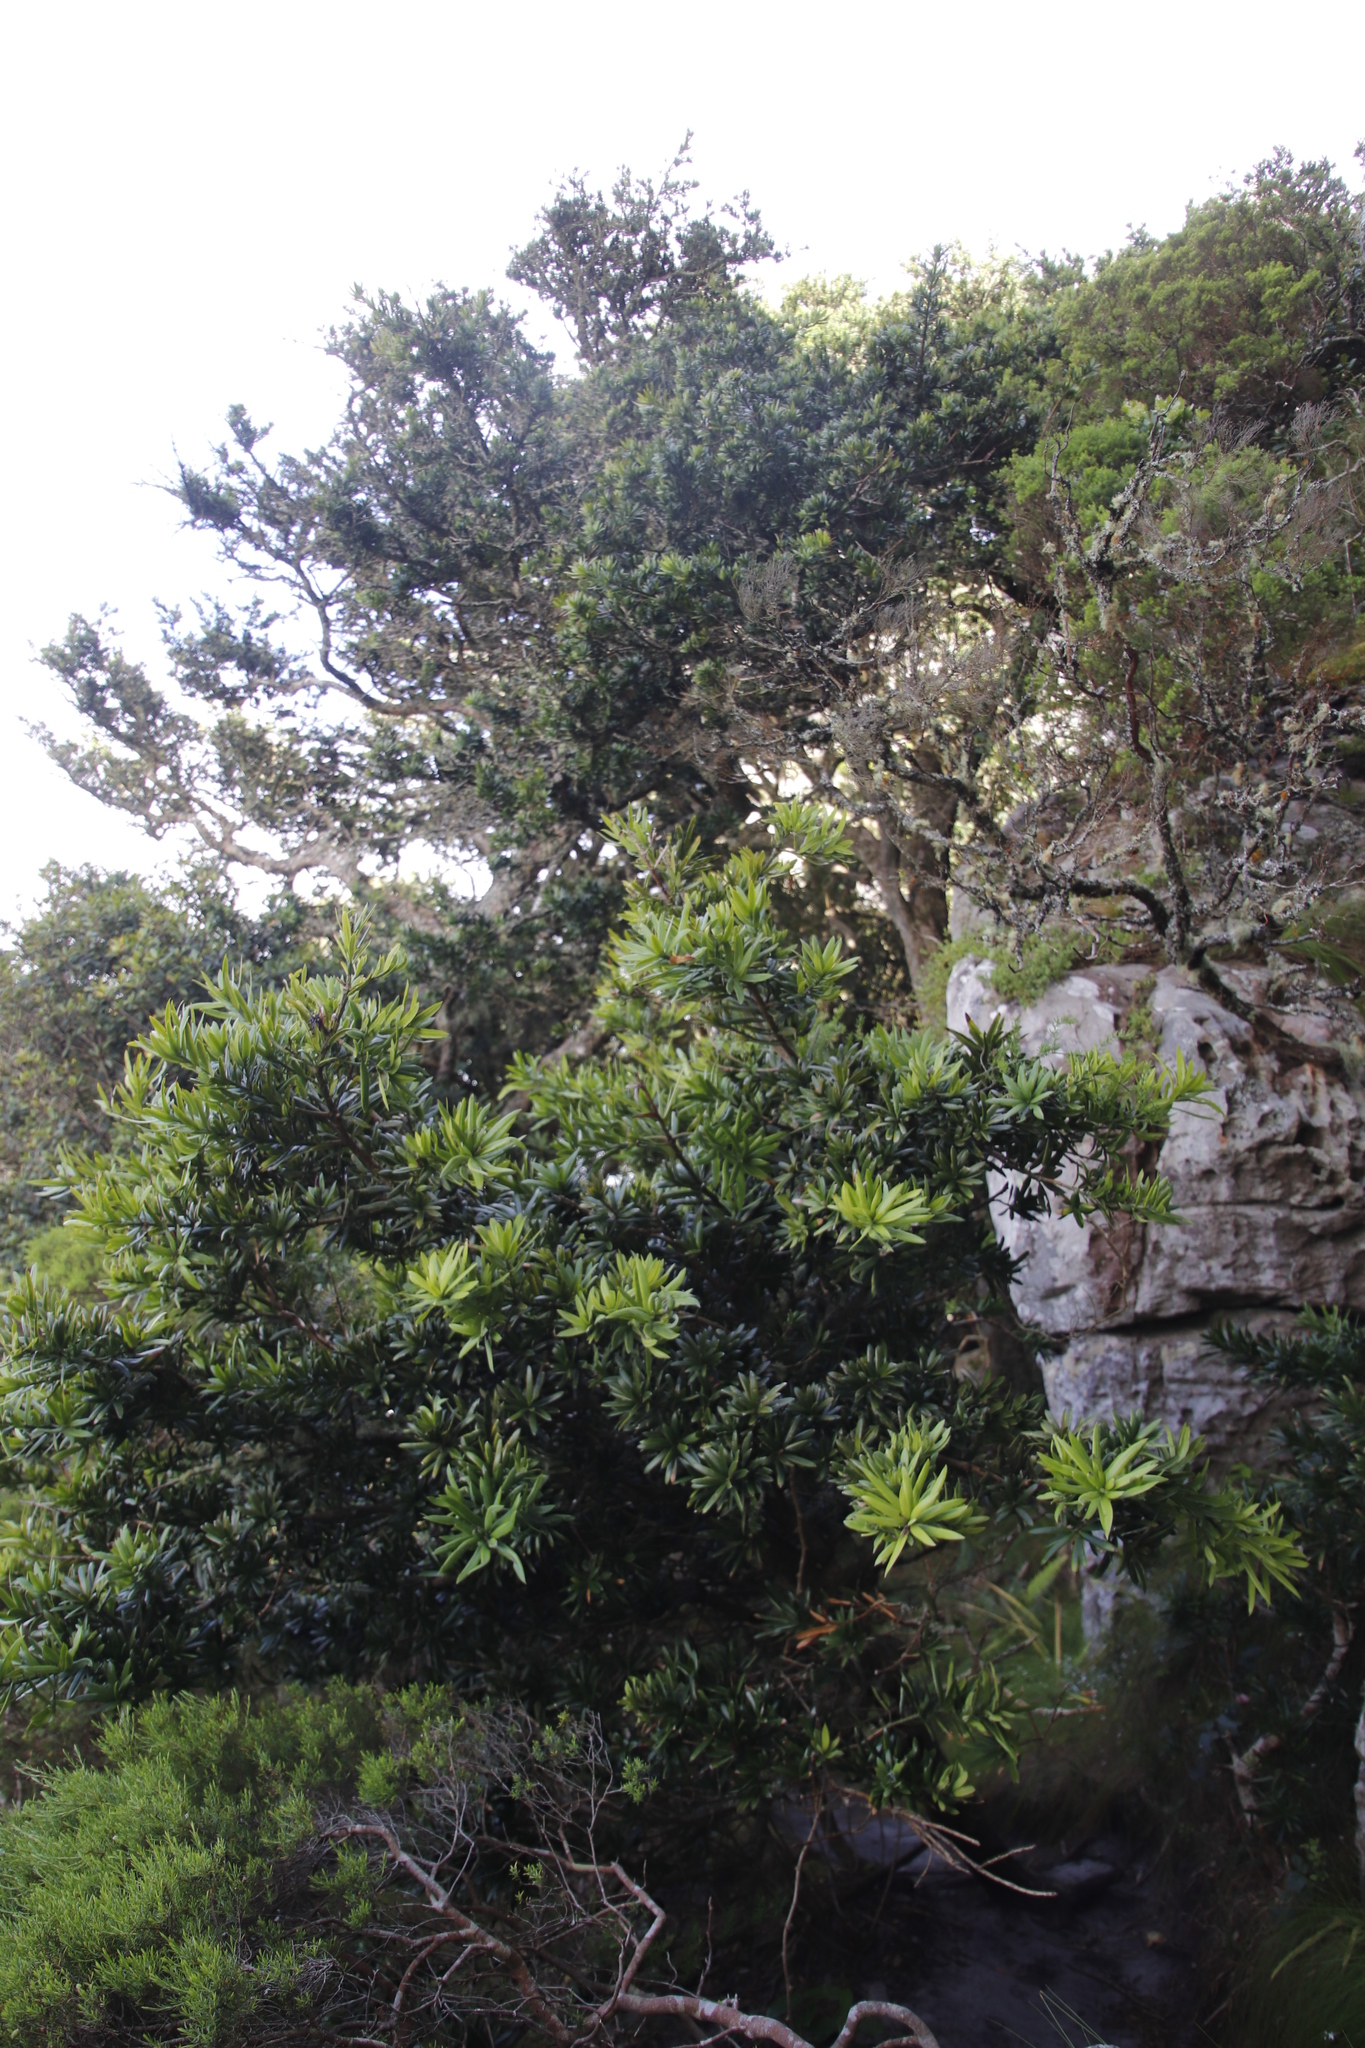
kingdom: Plantae
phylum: Tracheophyta
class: Pinopsida
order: Pinales
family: Podocarpaceae
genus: Podocarpus
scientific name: Podocarpus latifolius
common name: True yellowwood
